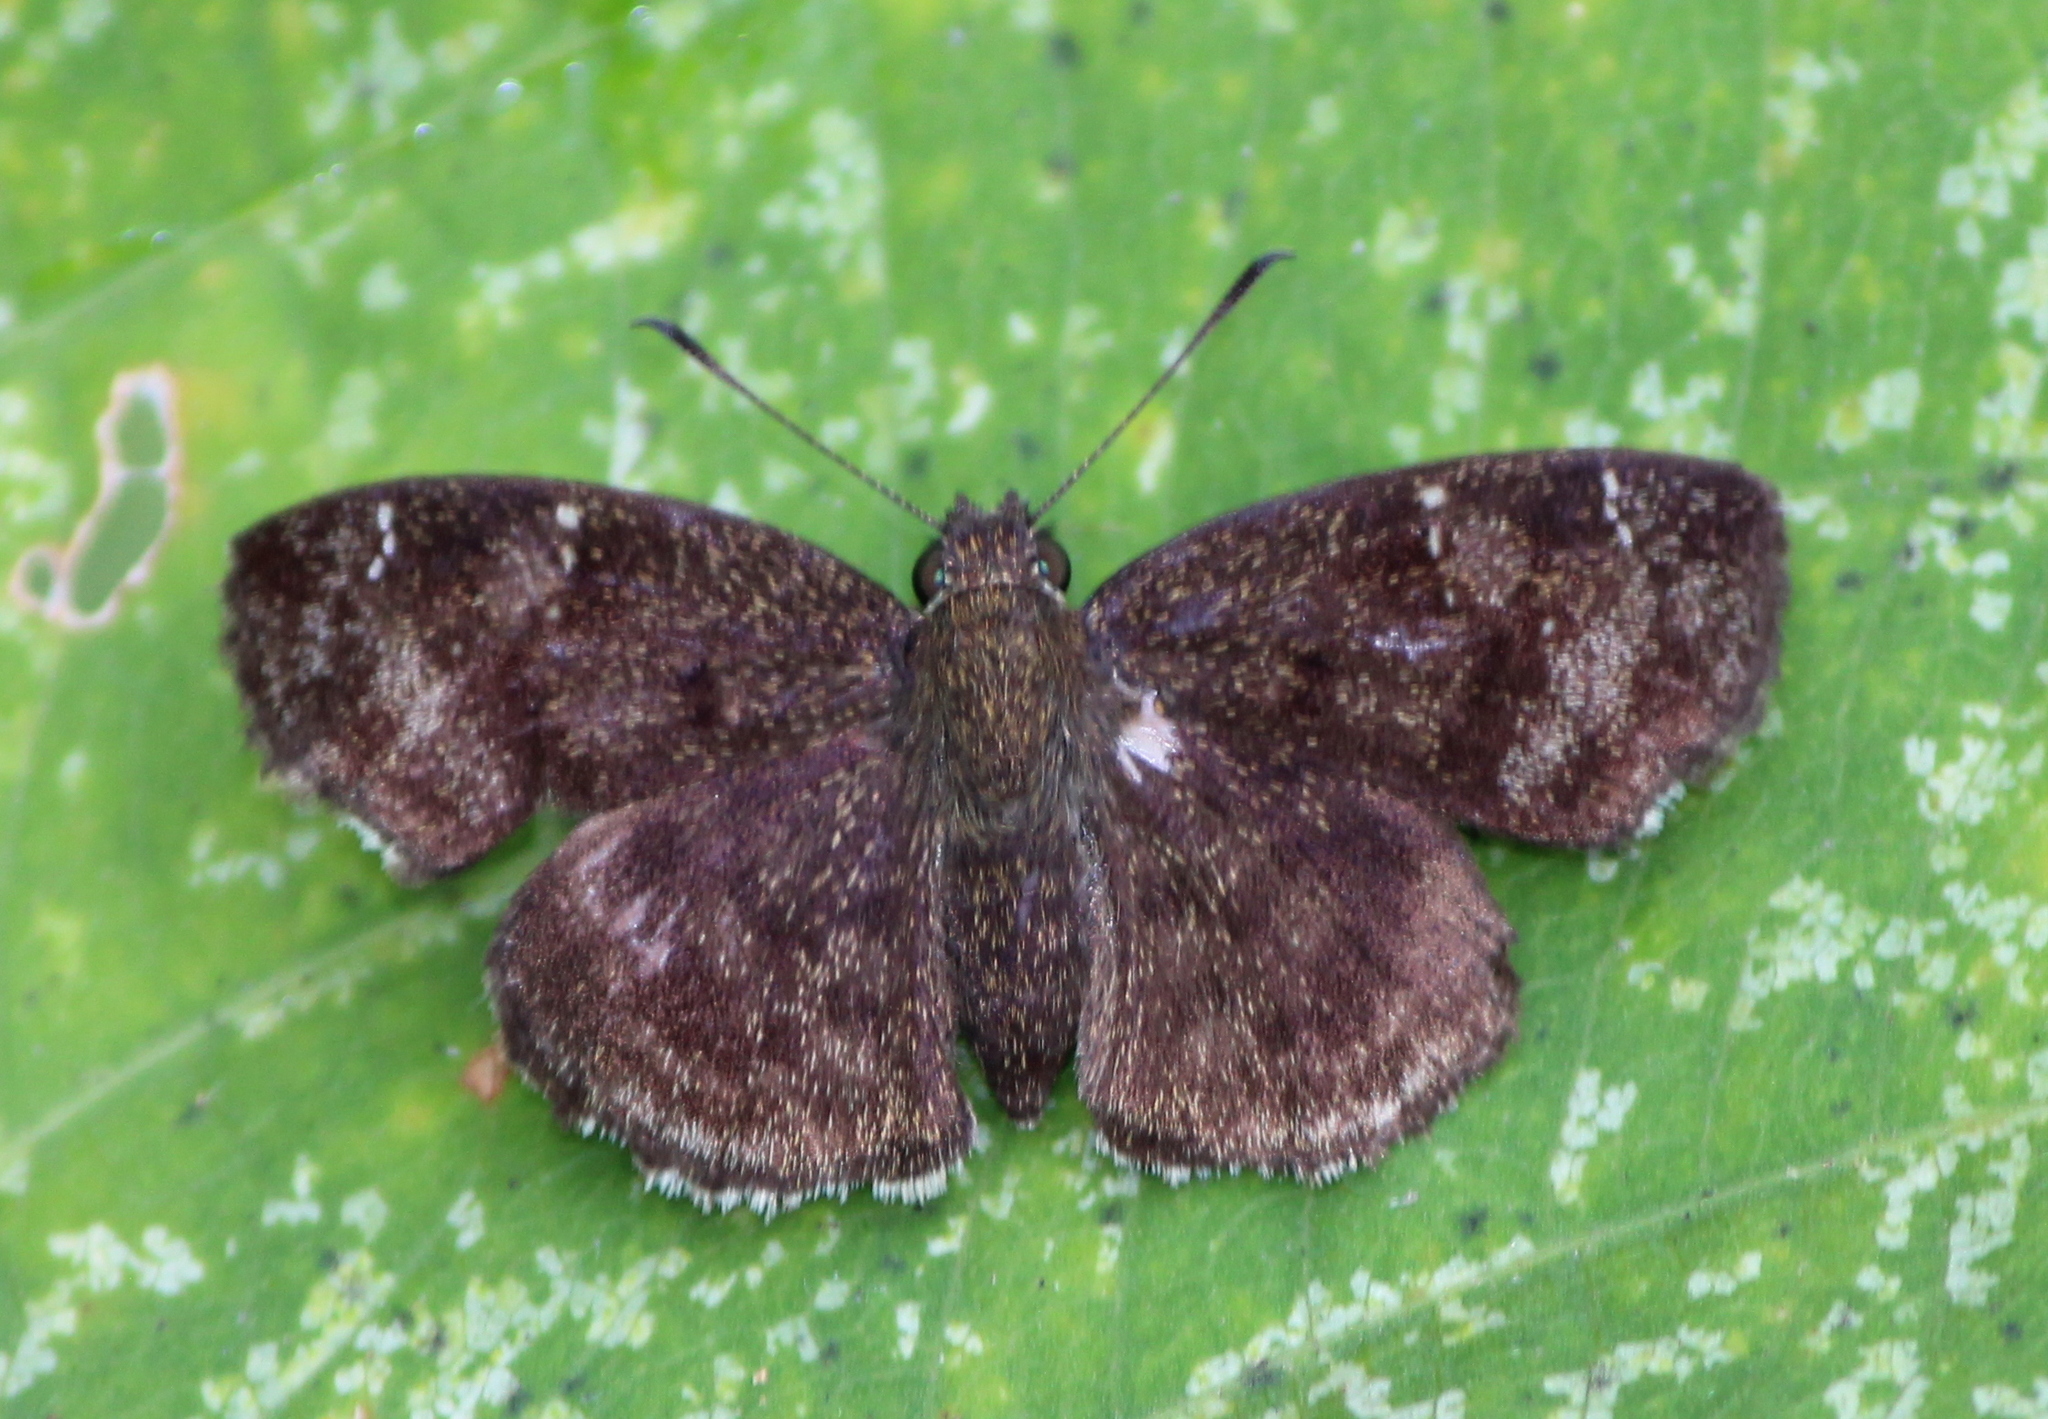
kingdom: Animalia
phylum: Arthropoda
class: Insecta
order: Lepidoptera
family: Hesperiidae
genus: Sarangesa
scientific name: Sarangesa dasahara
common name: Common small flat
